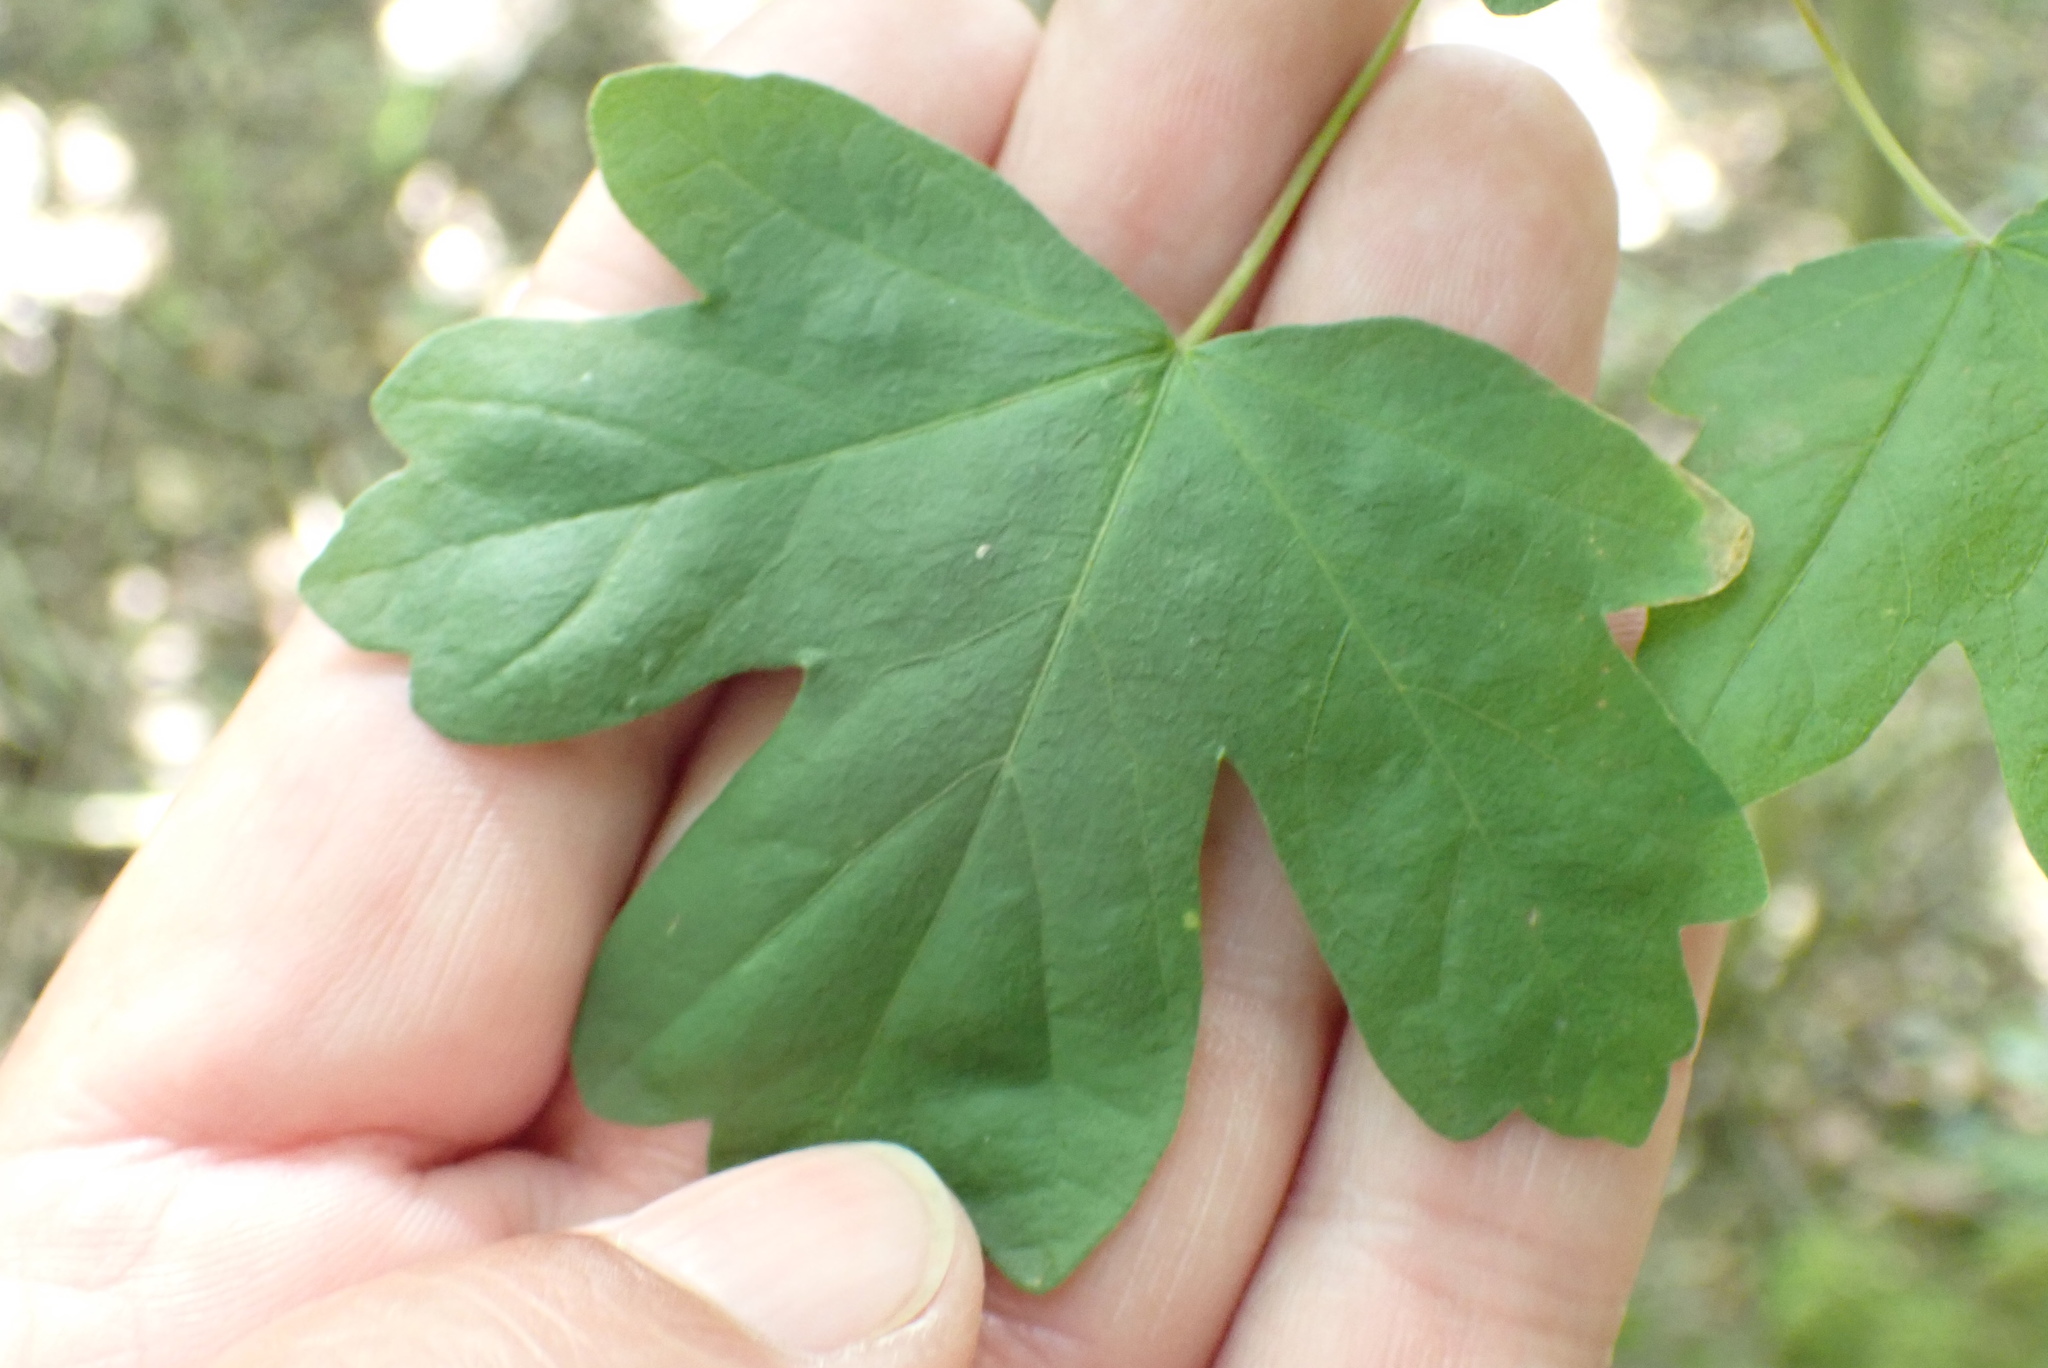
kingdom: Plantae
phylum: Tracheophyta
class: Magnoliopsida
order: Sapindales
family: Sapindaceae
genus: Acer
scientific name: Acer campestre
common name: Field maple
